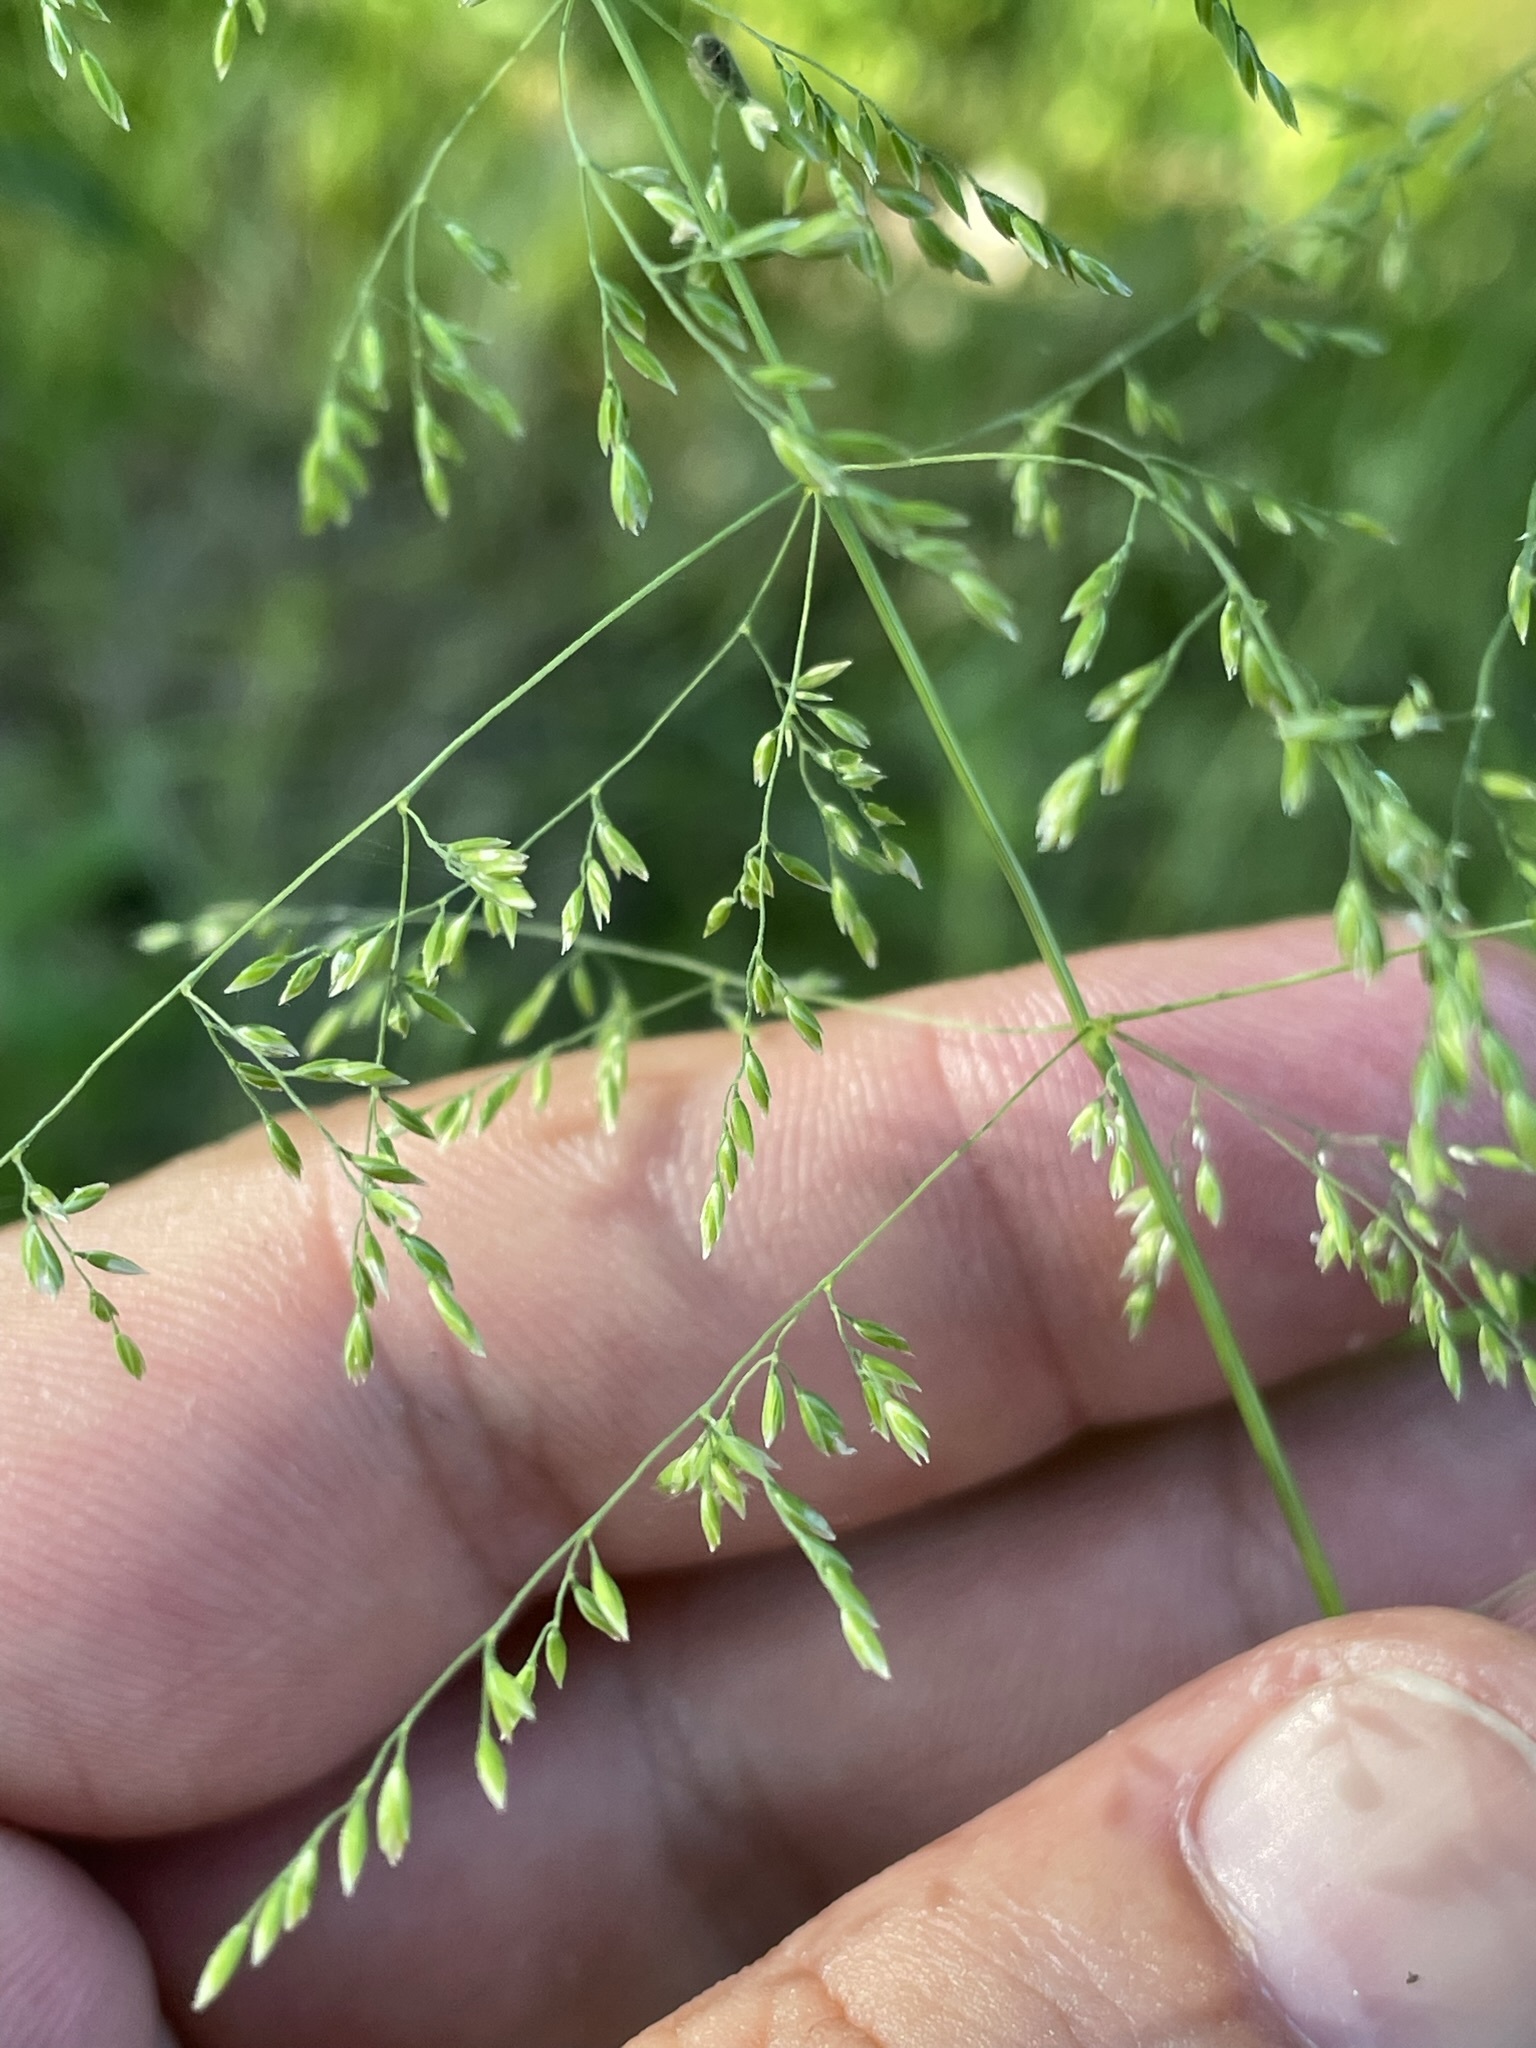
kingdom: Plantae
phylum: Tracheophyta
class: Liliopsida
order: Poales
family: Poaceae
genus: Poa
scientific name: Poa trivialis
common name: Rough bluegrass
